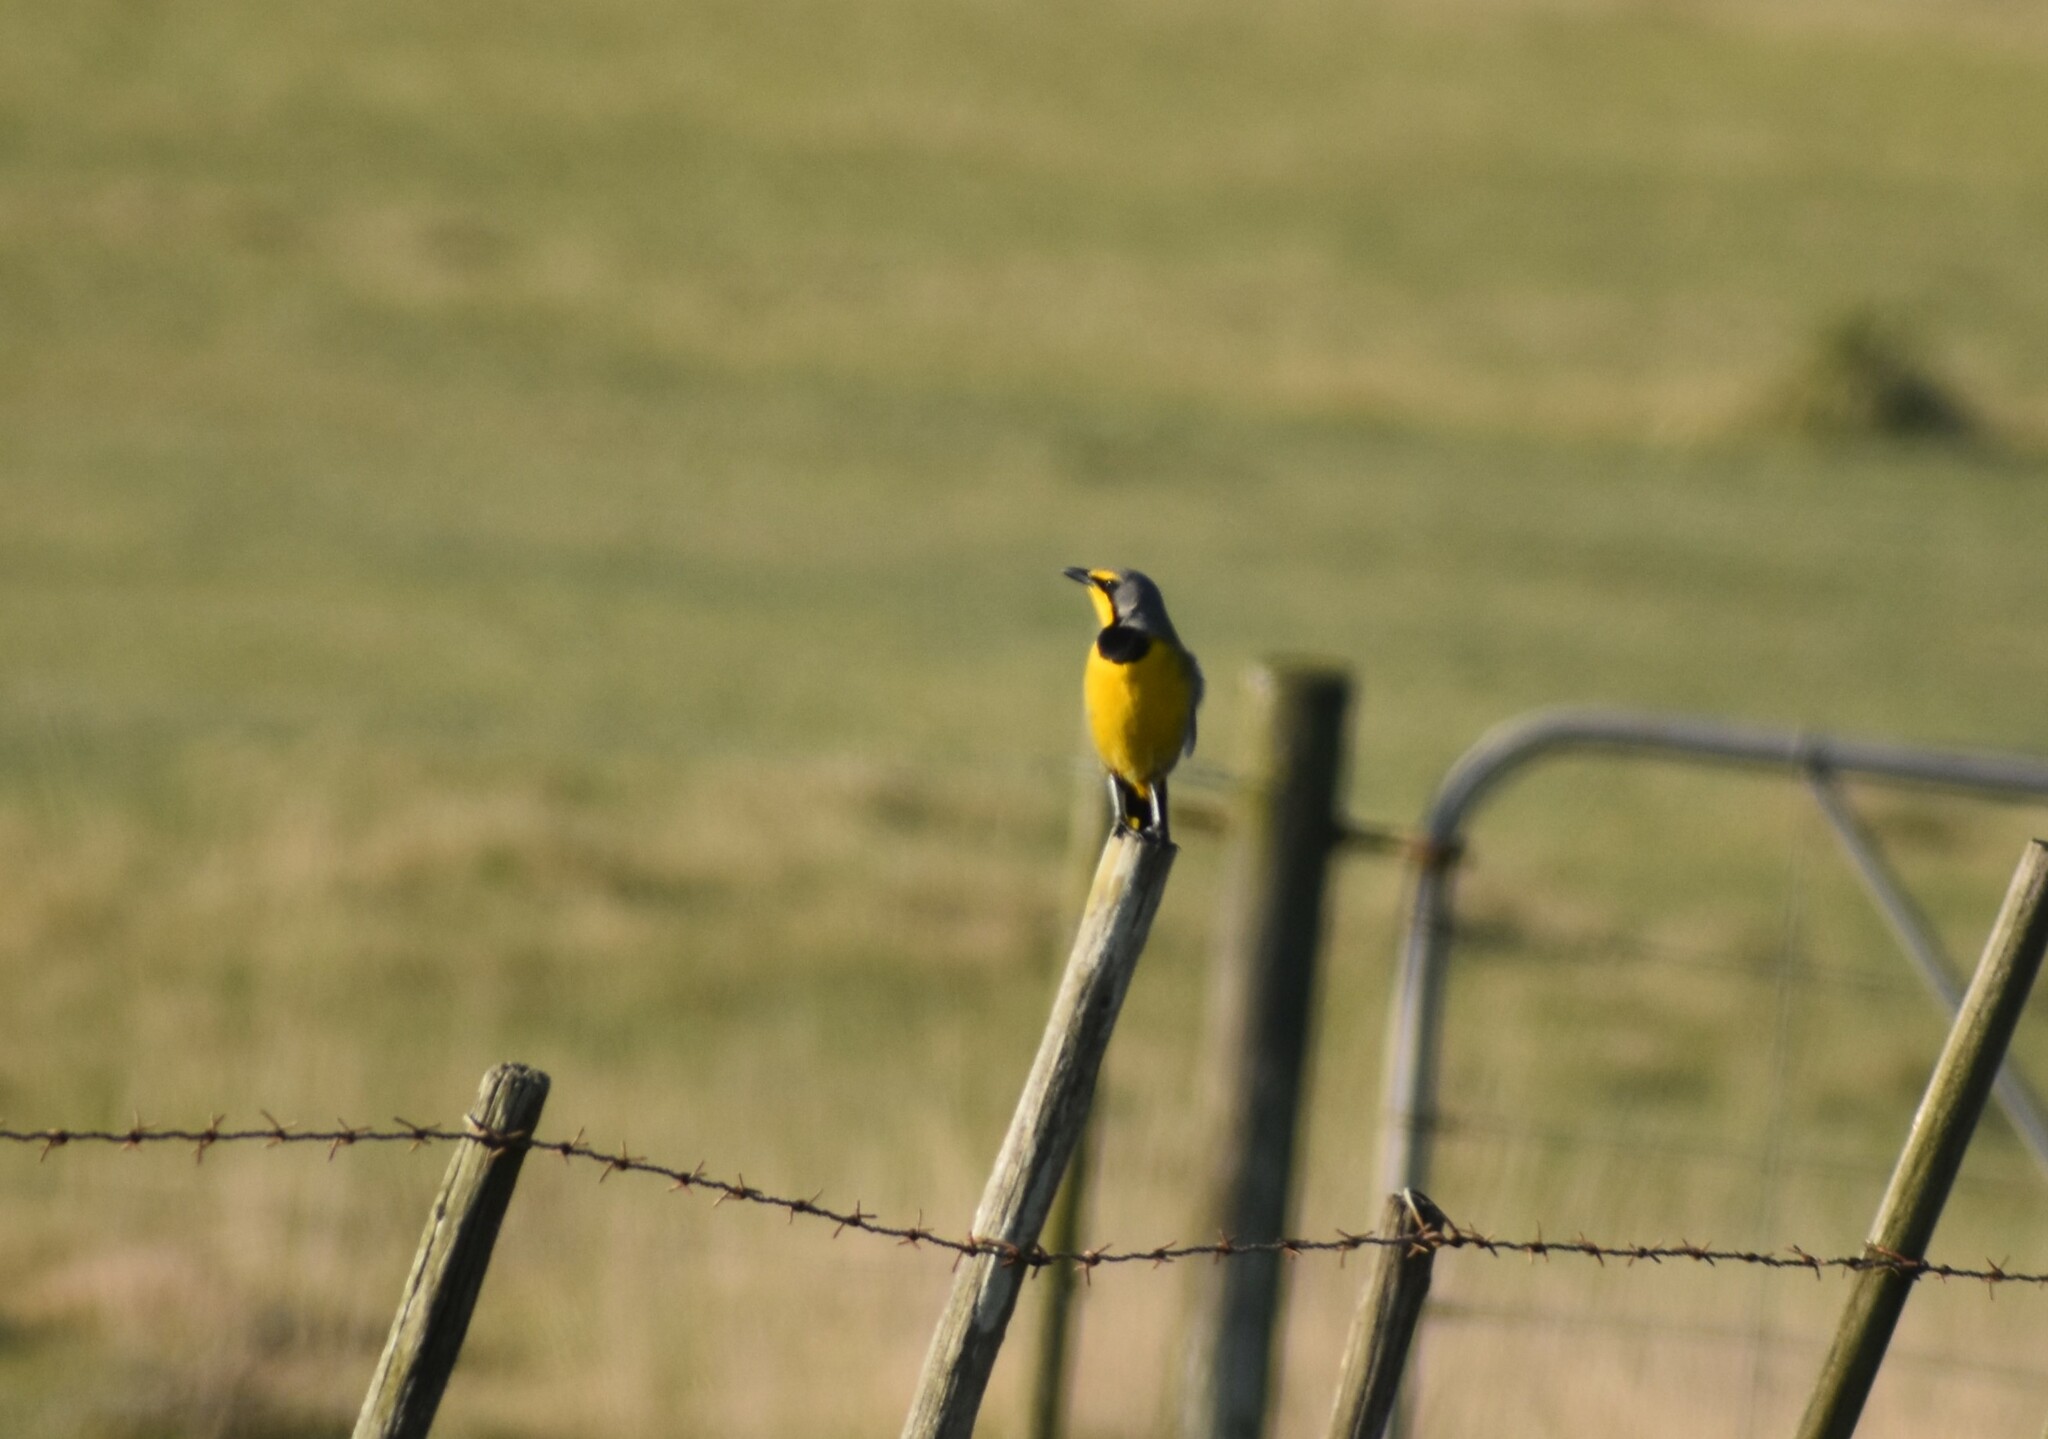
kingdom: Animalia
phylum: Chordata
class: Aves
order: Passeriformes
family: Malaconotidae
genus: Telophorus
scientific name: Telophorus zeylonus
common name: Bokmakierie
